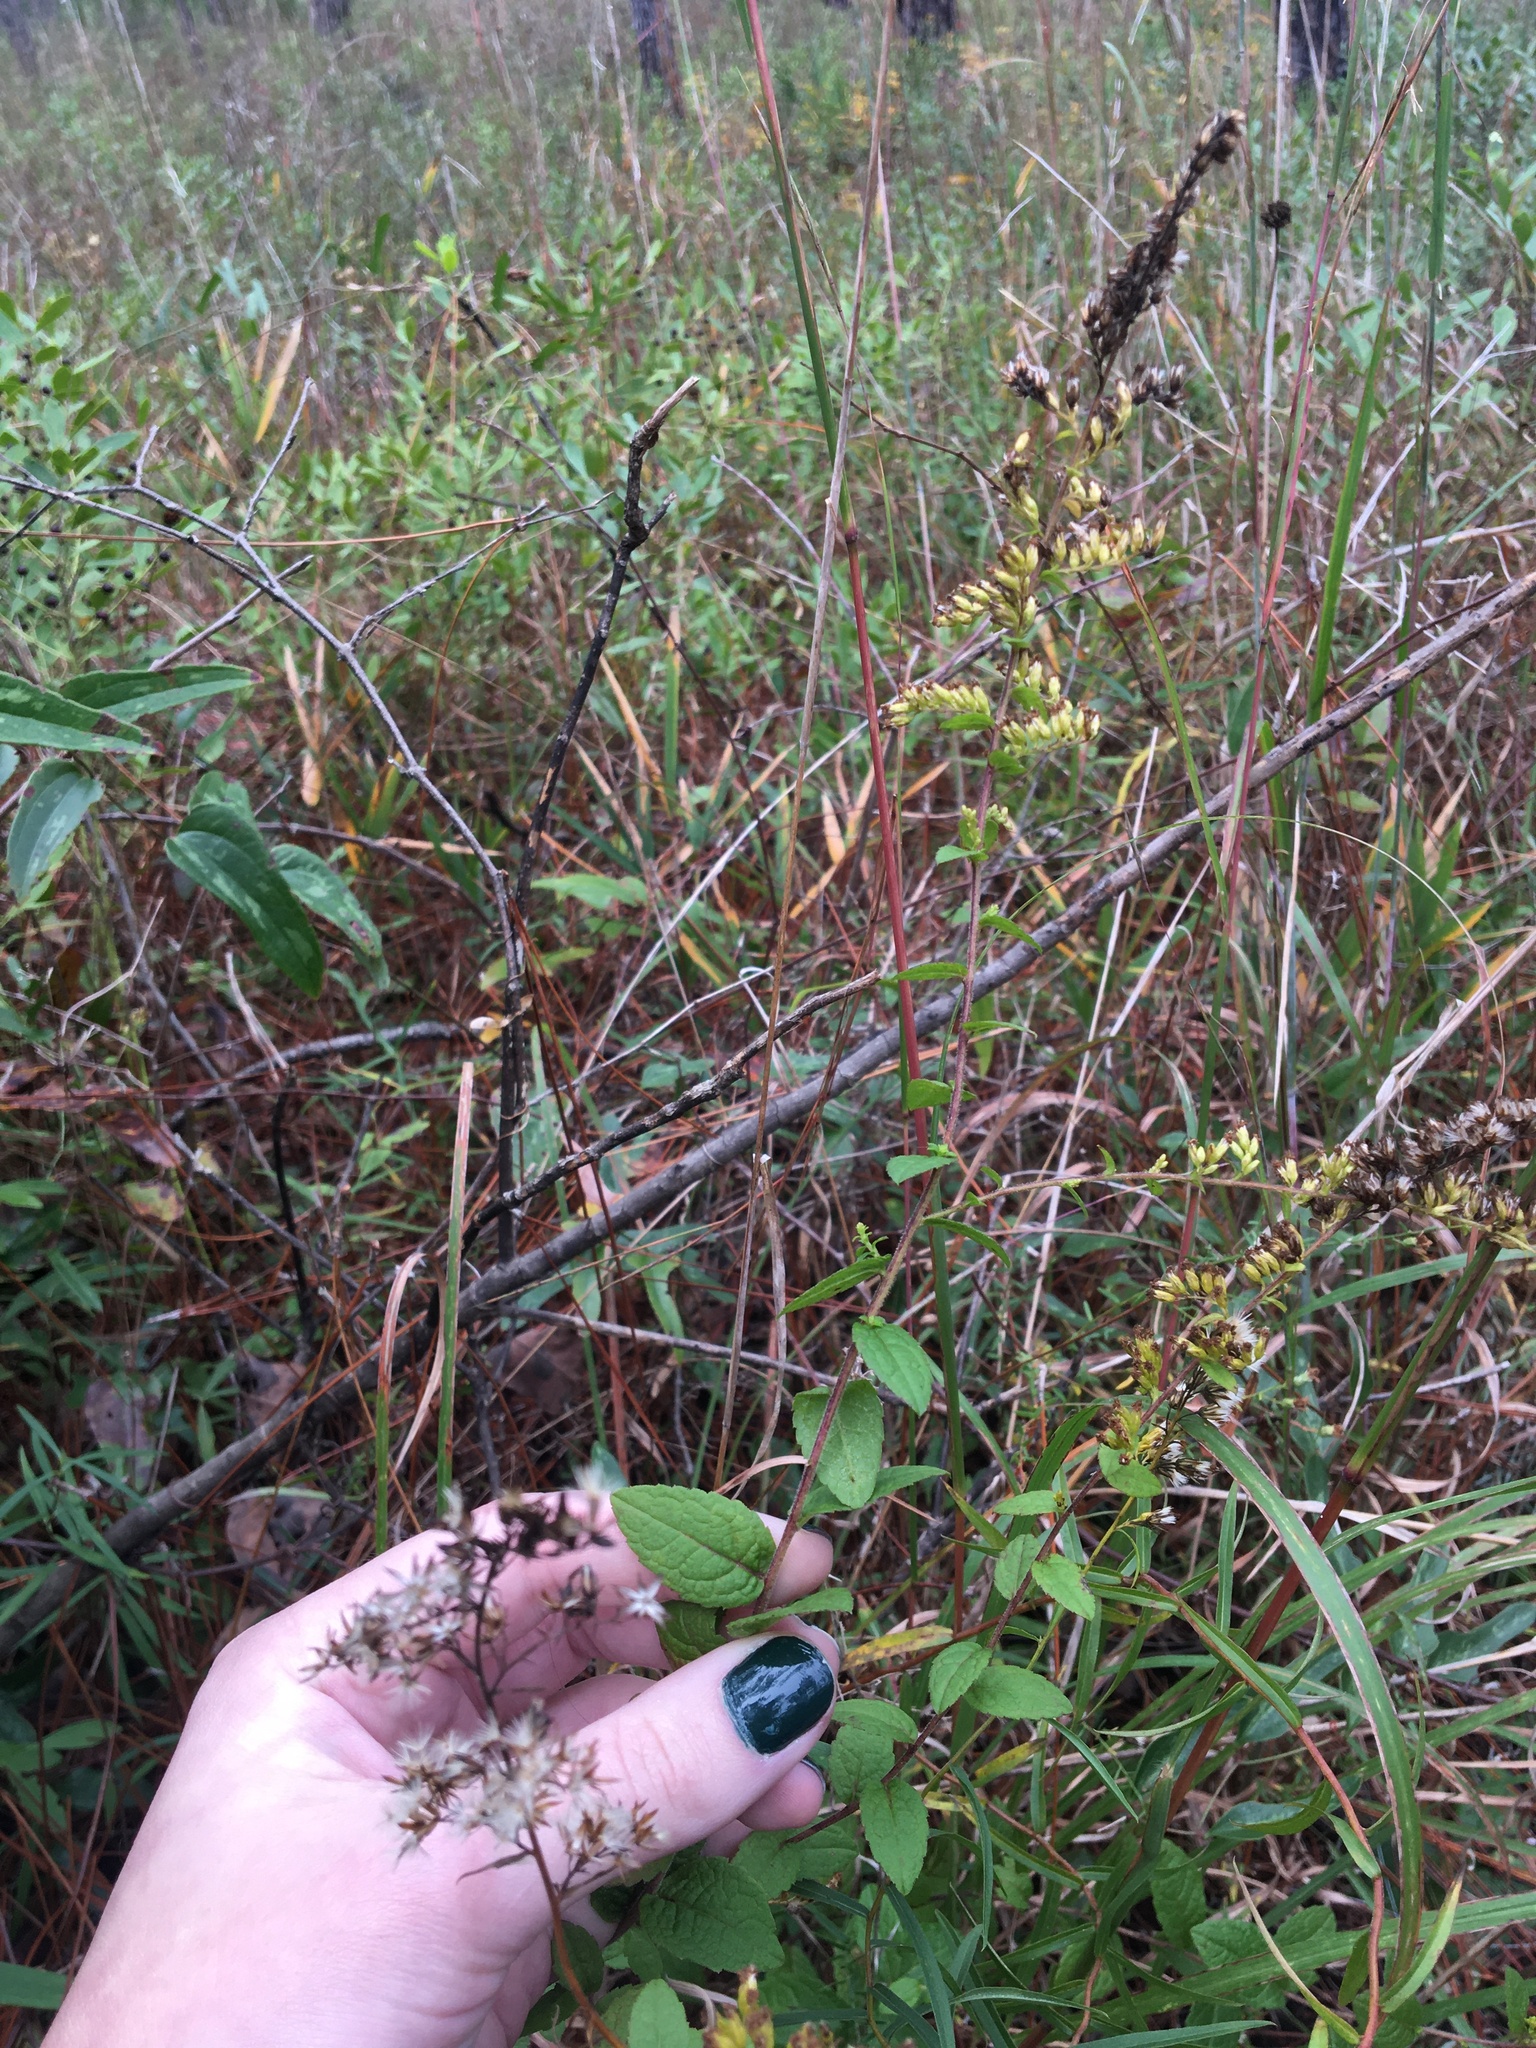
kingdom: Plantae
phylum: Tracheophyta
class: Magnoliopsida
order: Asterales
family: Asteraceae
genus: Solidago
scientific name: Solidago rugosa
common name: Rough-stemmed goldenrod
